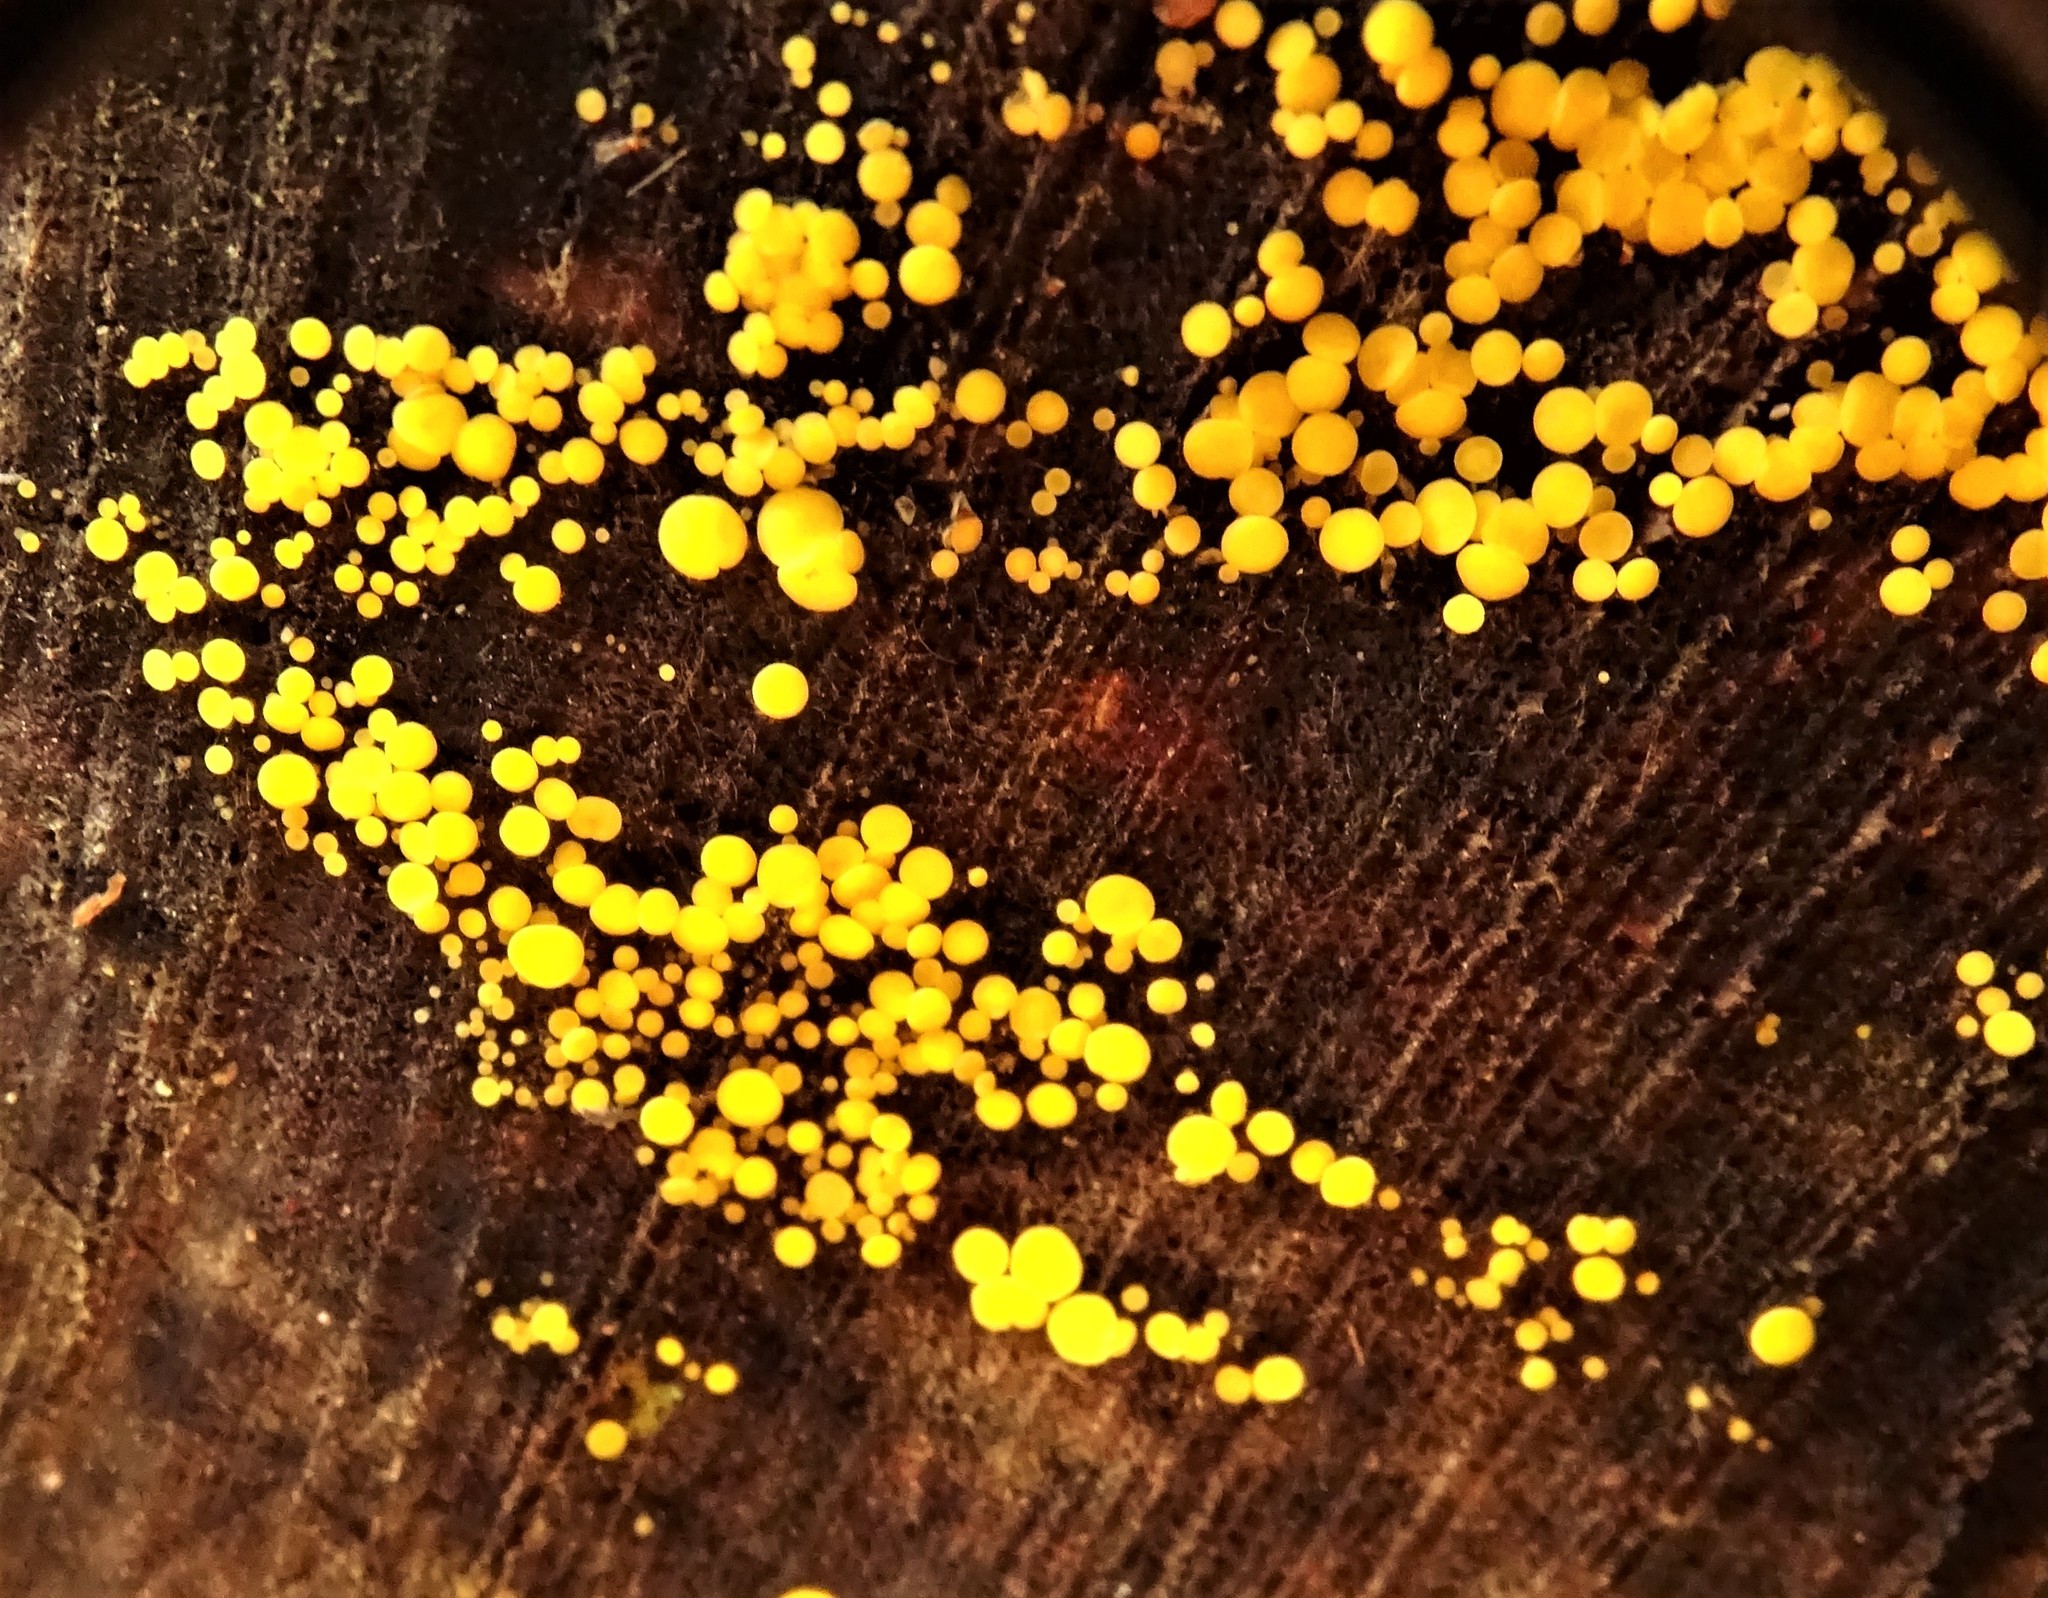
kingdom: Fungi
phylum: Ascomycota
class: Leotiomycetes
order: Helotiales
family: Pezizellaceae
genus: Calycina
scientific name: Calycina citrina
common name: Yellow fairy cups
